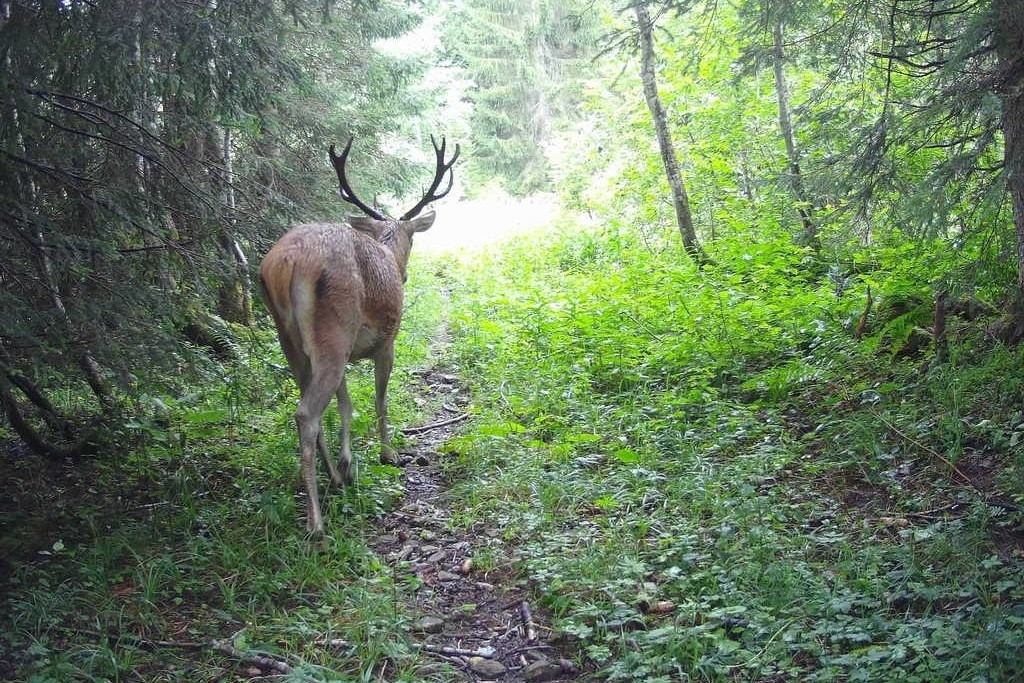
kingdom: Animalia
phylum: Chordata
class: Mammalia
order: Artiodactyla
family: Cervidae
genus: Cervus
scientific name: Cervus elaphus
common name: Red deer
